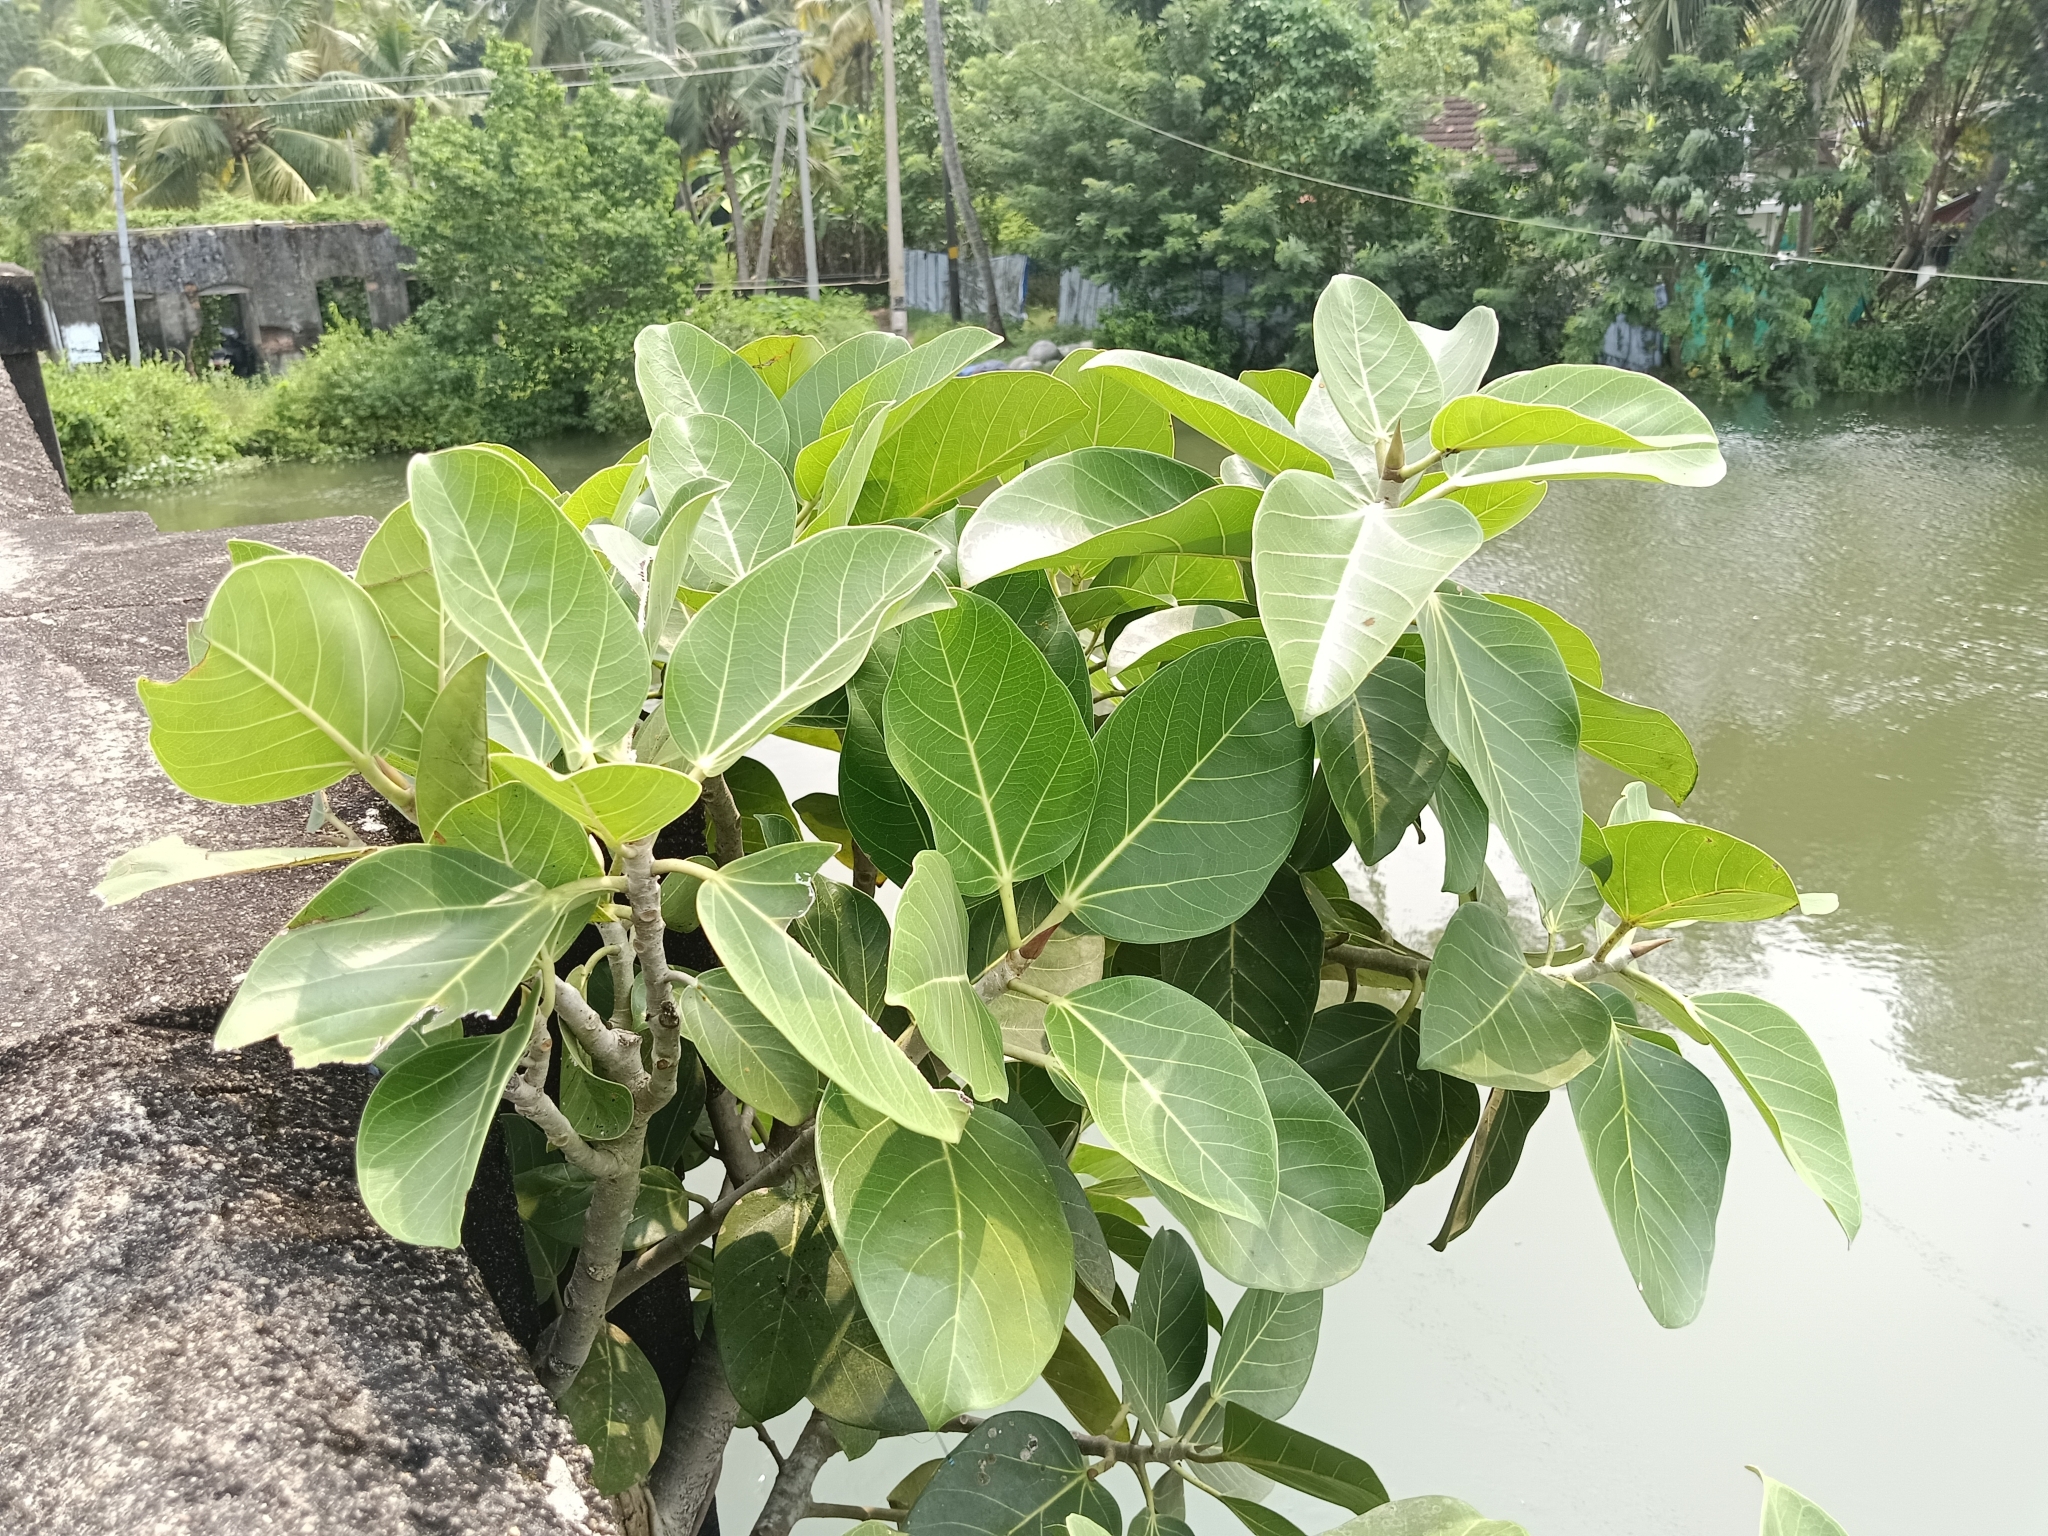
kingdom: Plantae
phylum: Tracheophyta
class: Magnoliopsida
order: Rosales
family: Moraceae
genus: Ficus
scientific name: Ficus benghalensis
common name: Indian banyan
